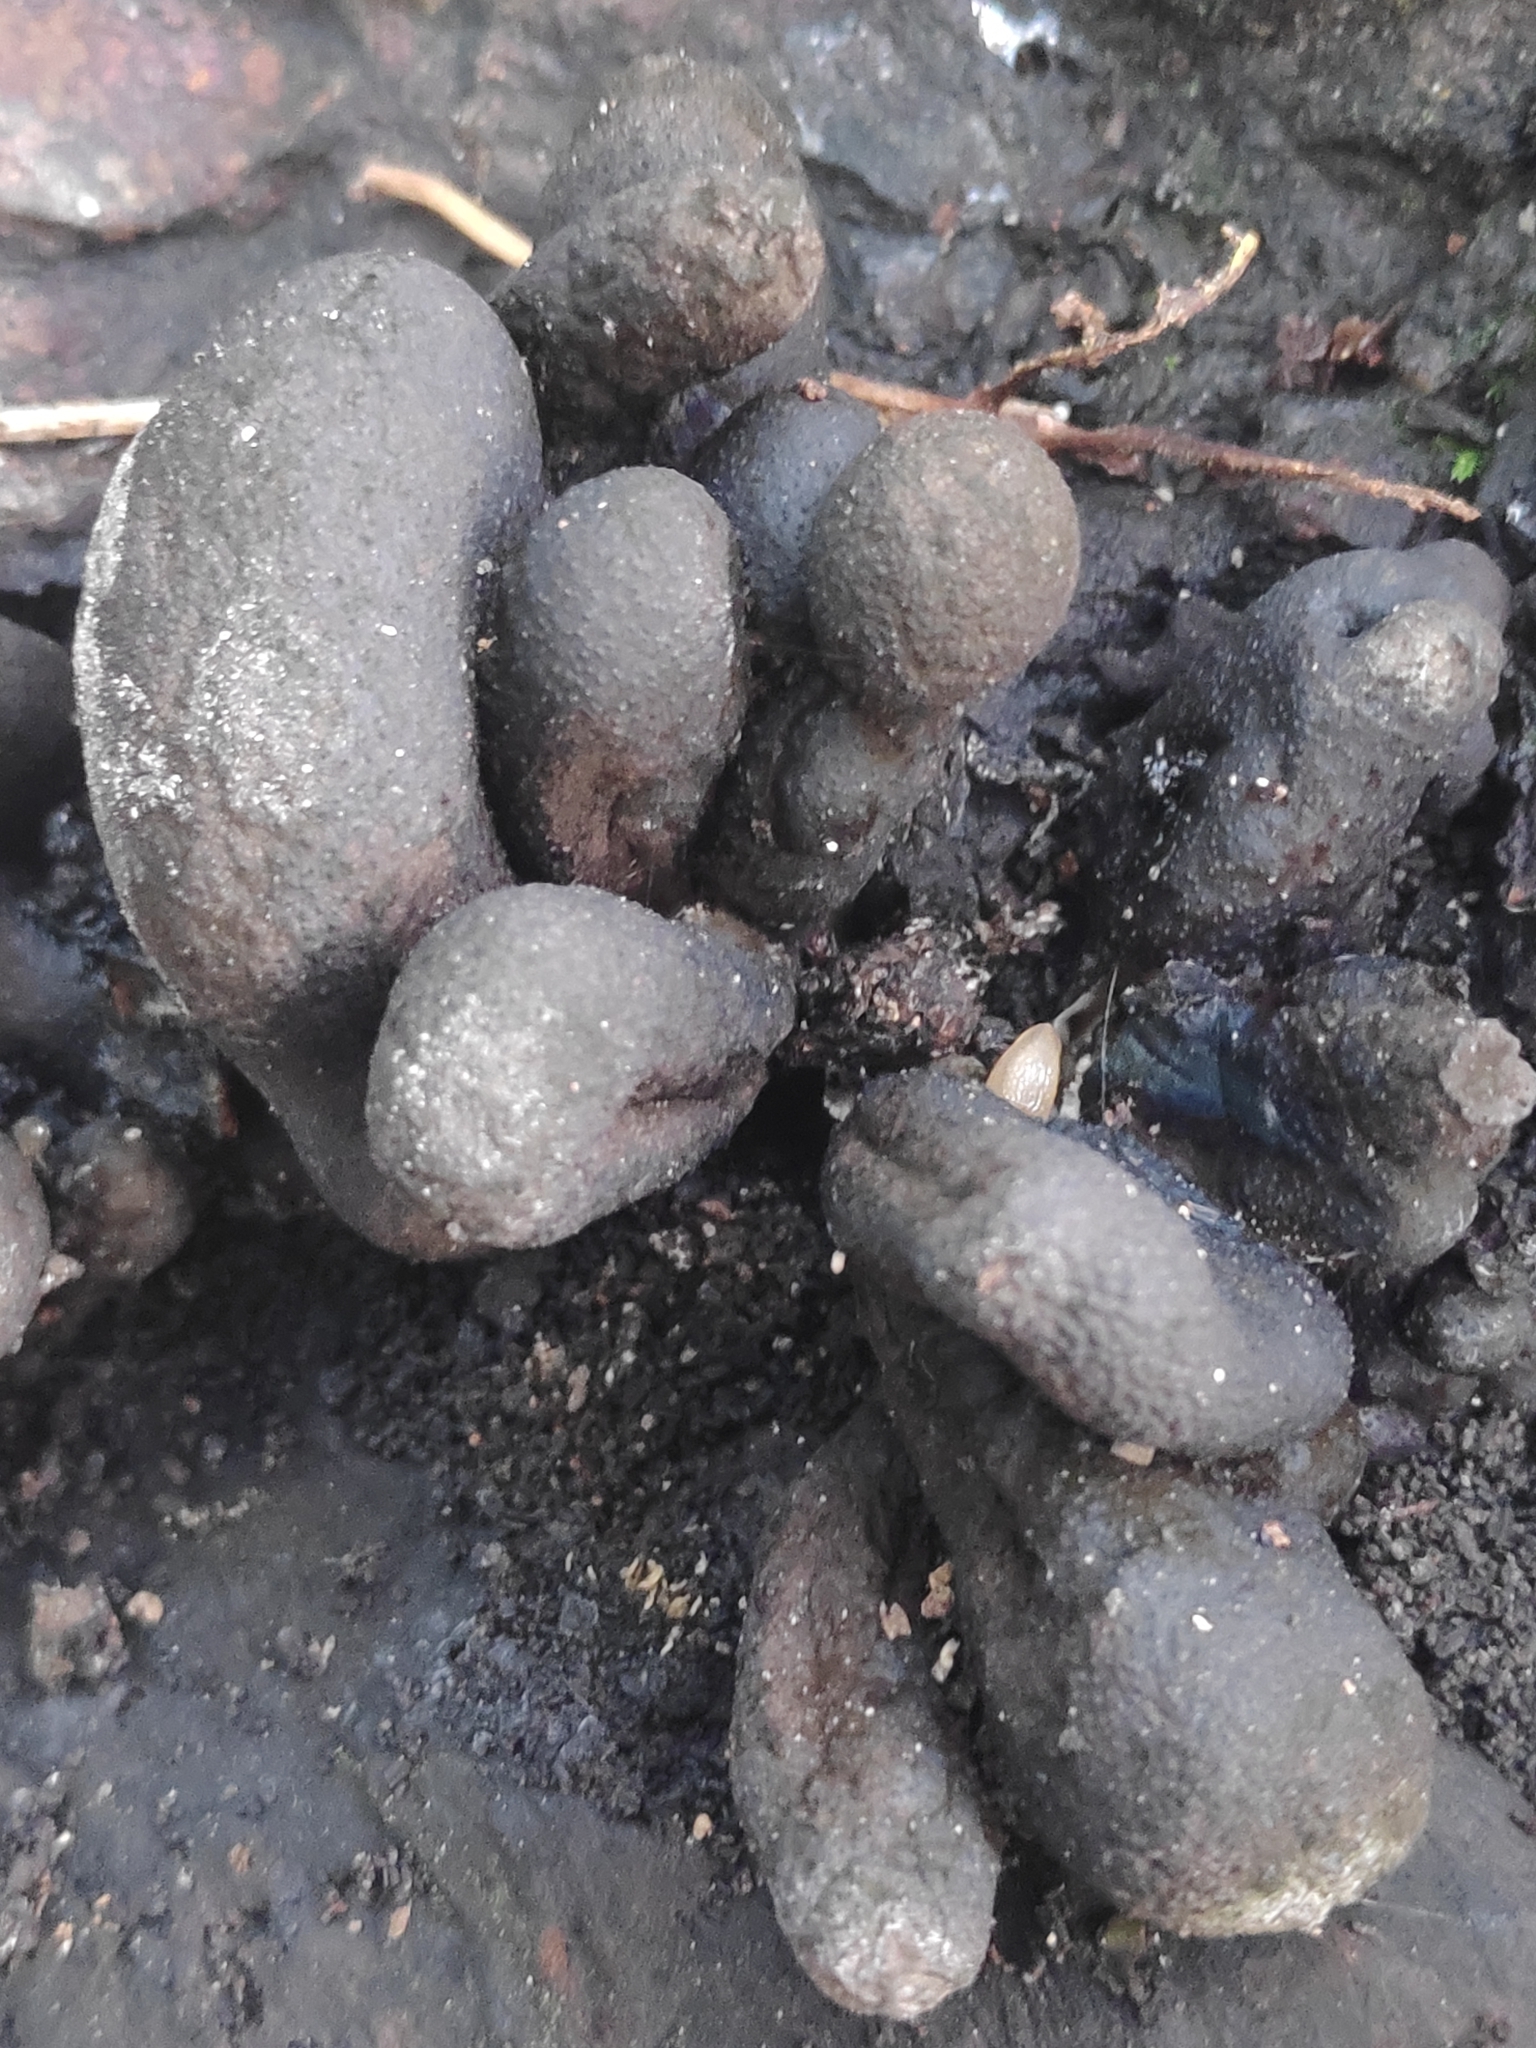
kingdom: Fungi
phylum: Ascomycota
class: Sordariomycetes
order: Xylariales
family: Xylariaceae
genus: Xylaria
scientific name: Xylaria polymorpha
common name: Dead man's fingers
